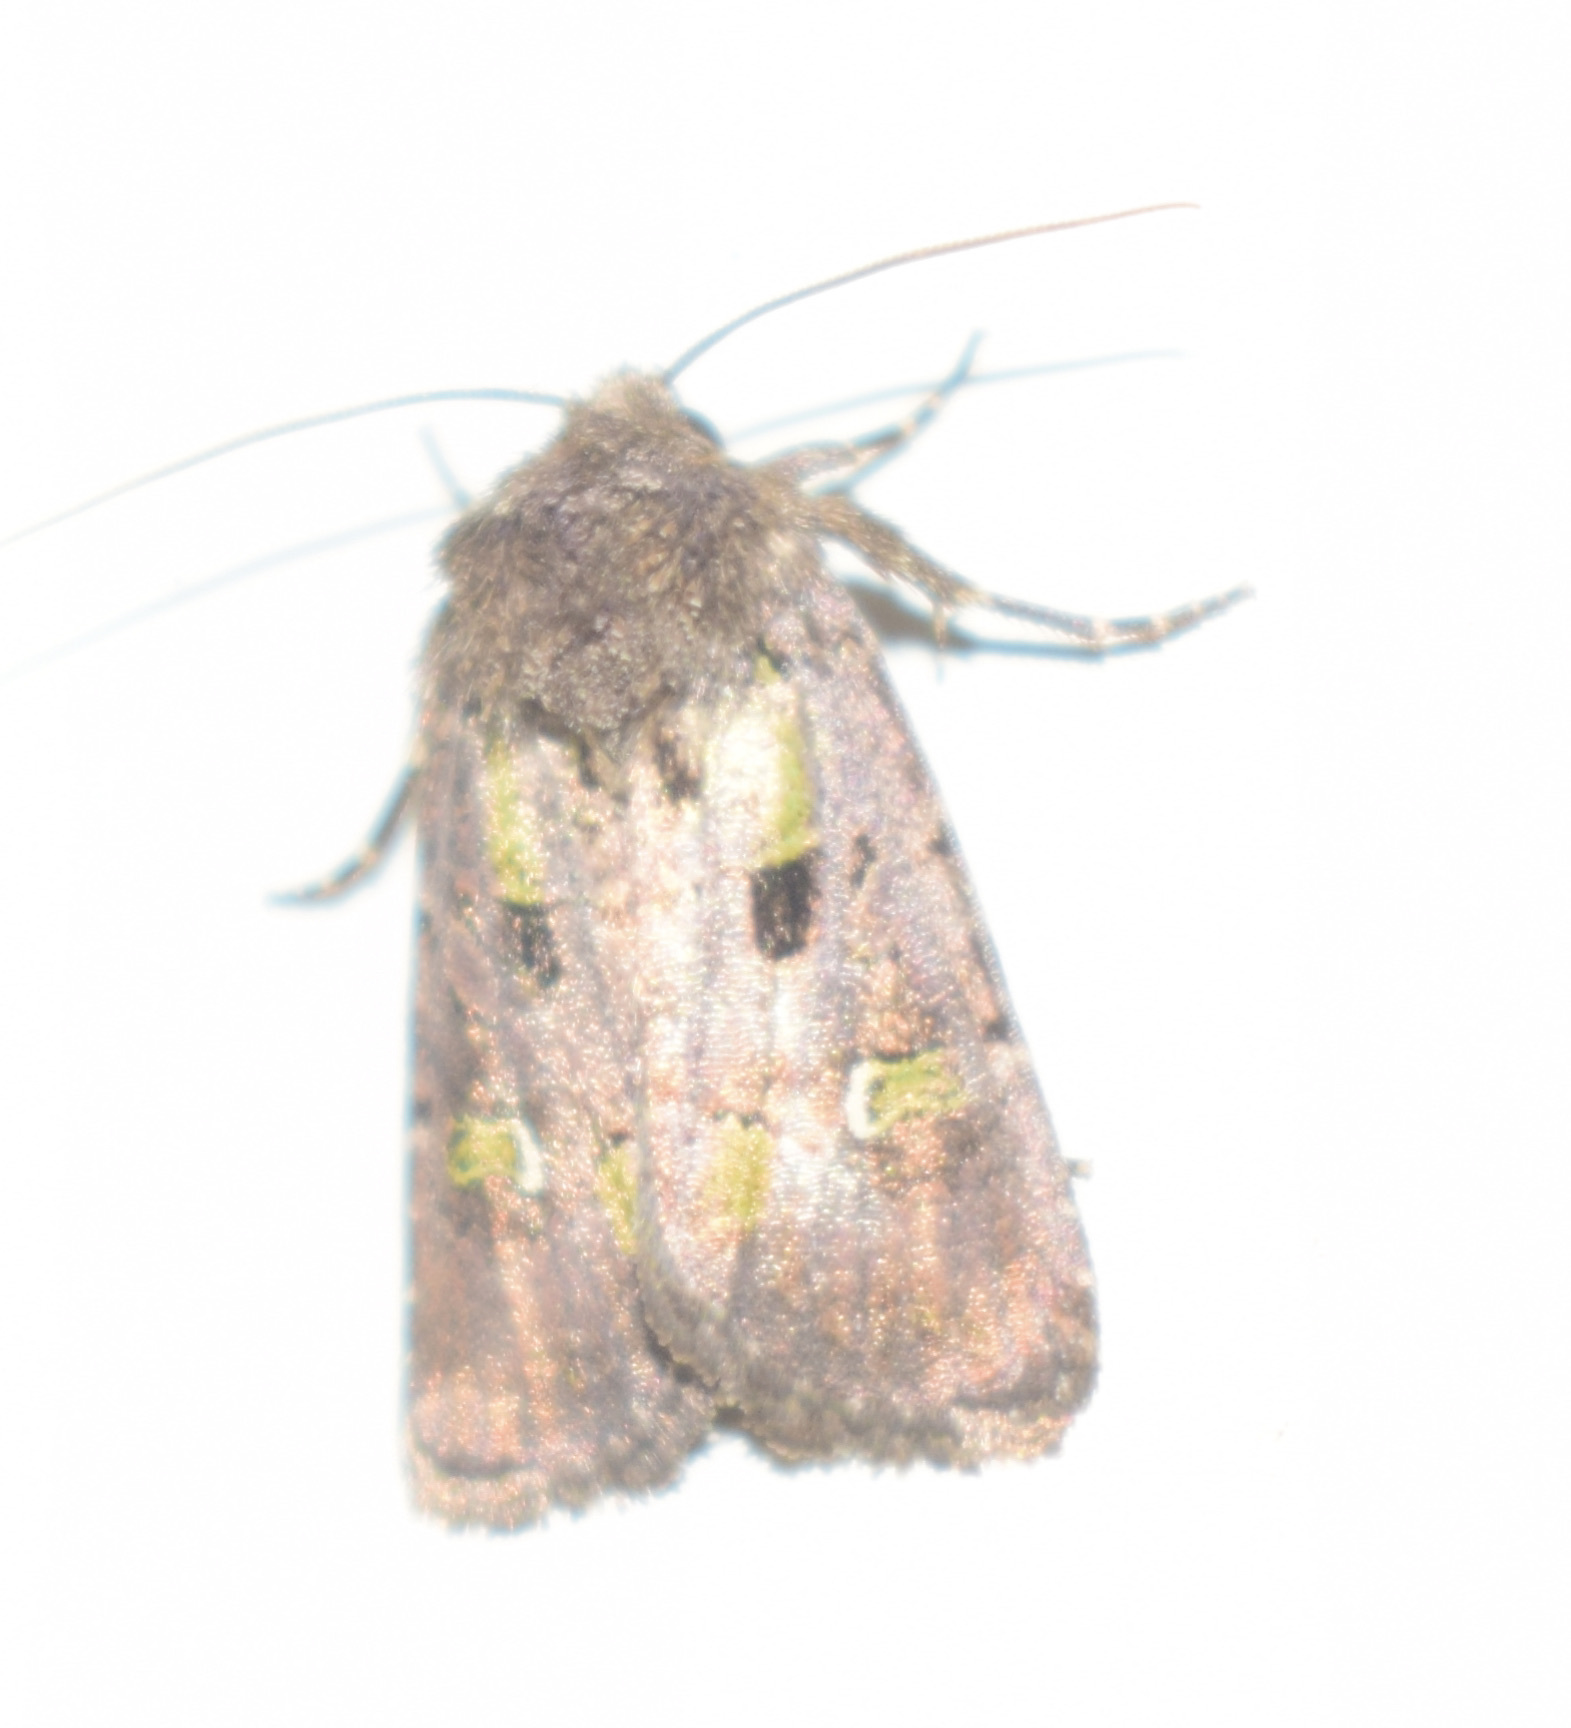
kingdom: Animalia
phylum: Arthropoda
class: Insecta
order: Lepidoptera
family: Noctuidae
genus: Lacinipolia
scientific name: Lacinipolia renigera
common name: Kidney-spotted minor
